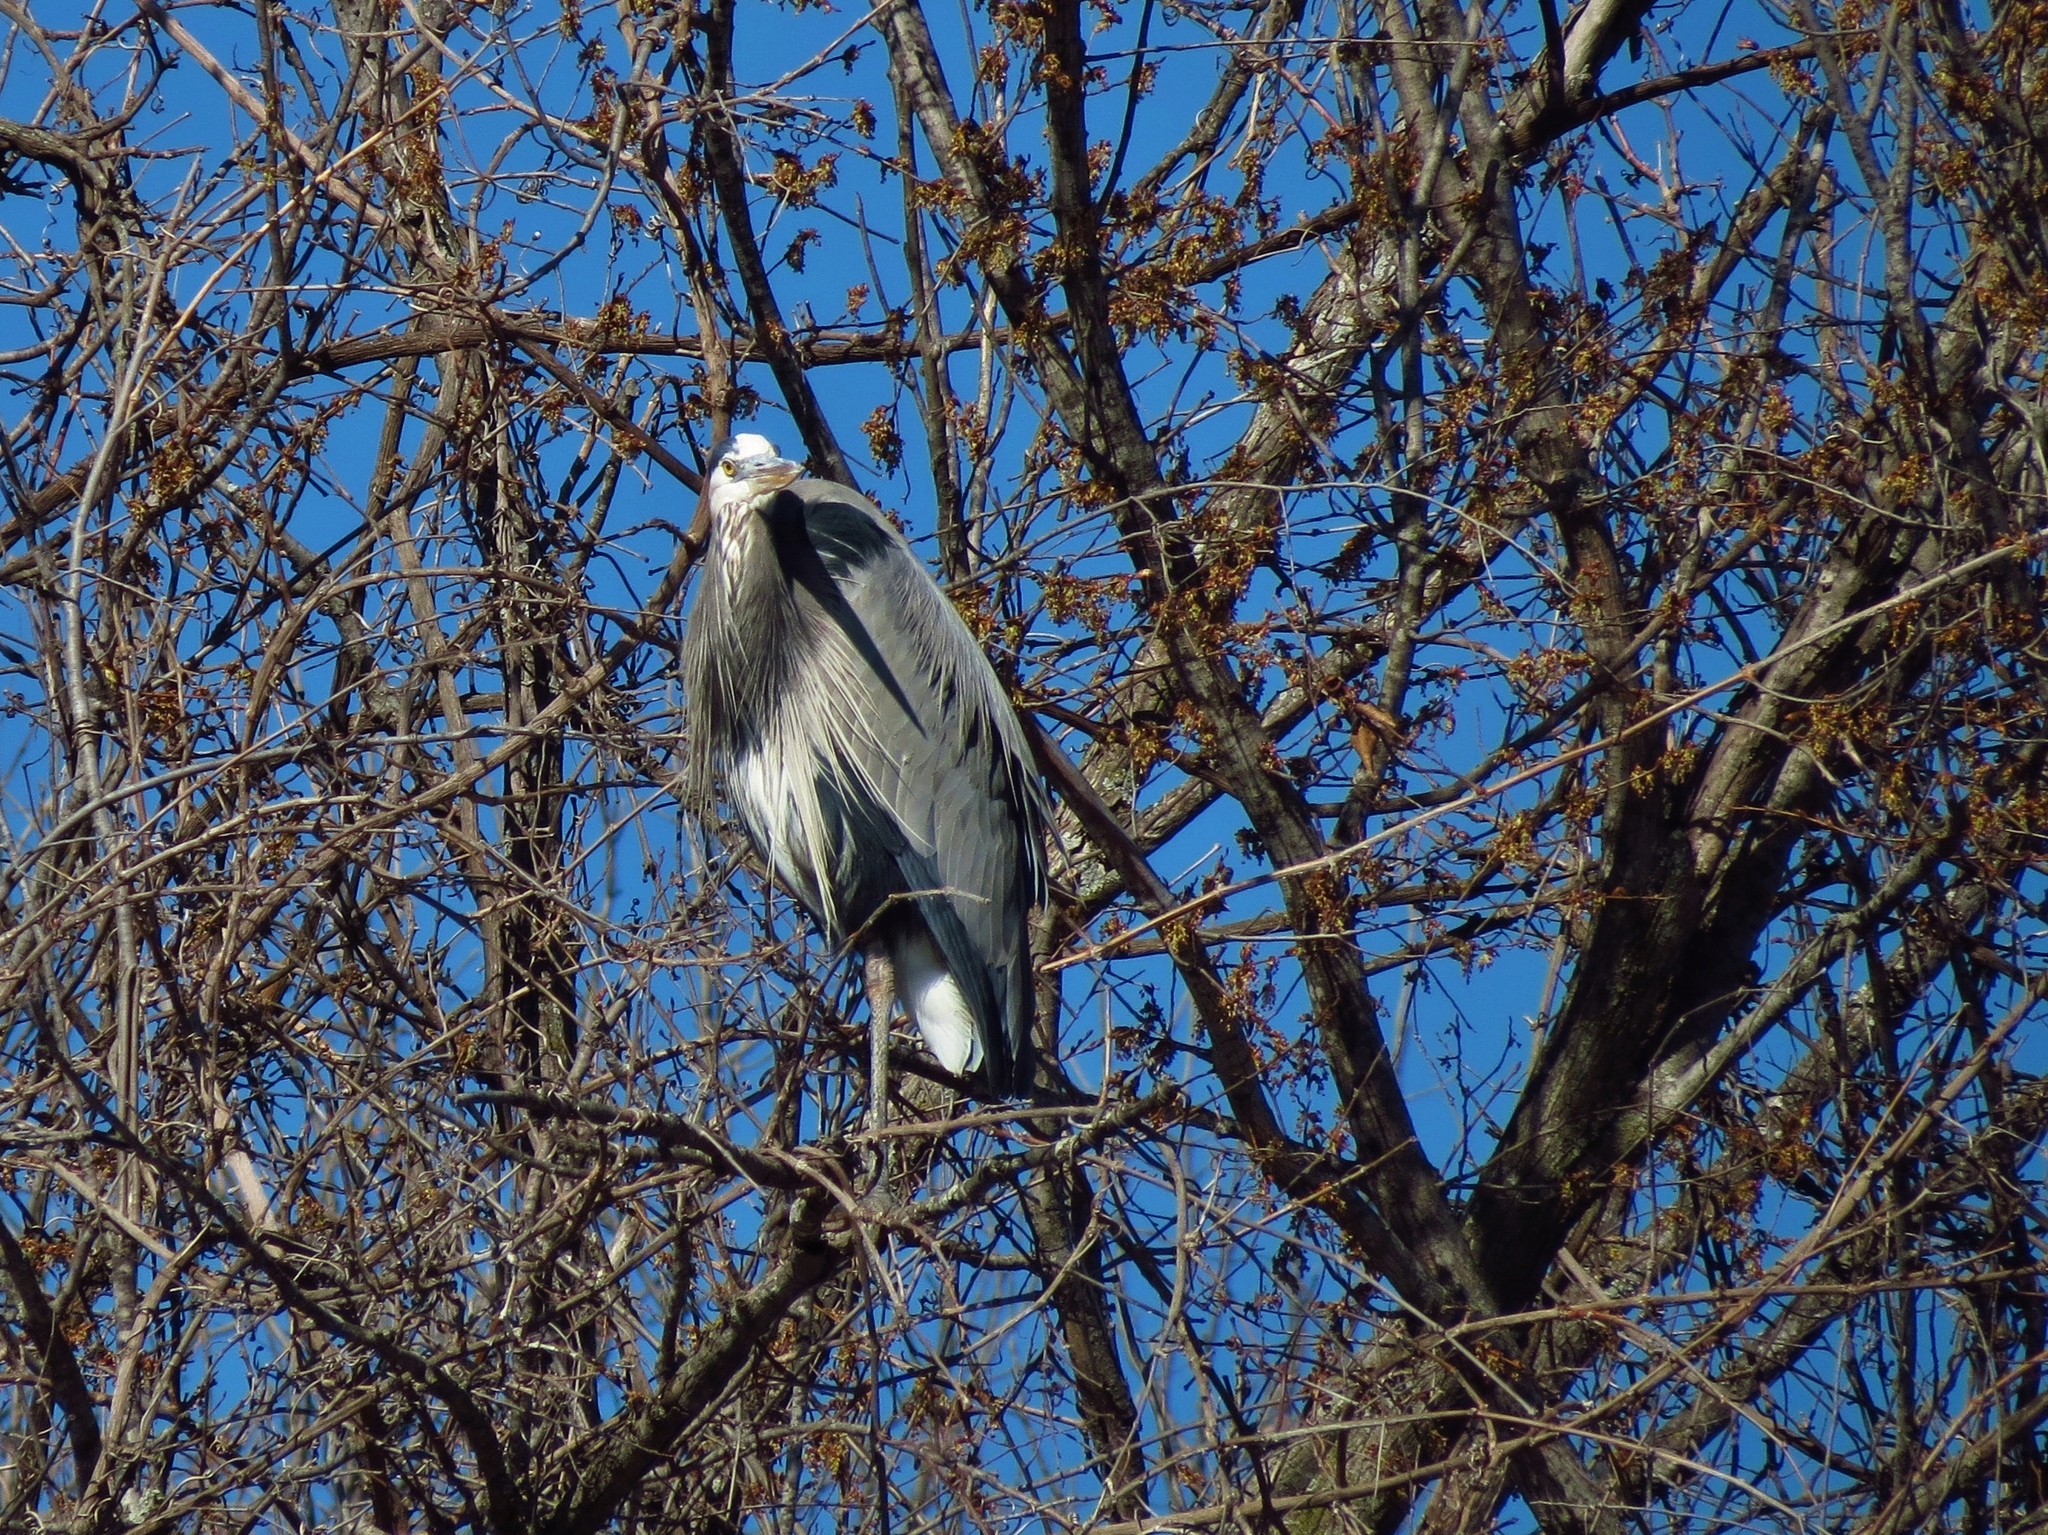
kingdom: Animalia
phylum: Chordata
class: Aves
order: Pelecaniformes
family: Ardeidae
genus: Ardea
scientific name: Ardea herodias
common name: Great blue heron
